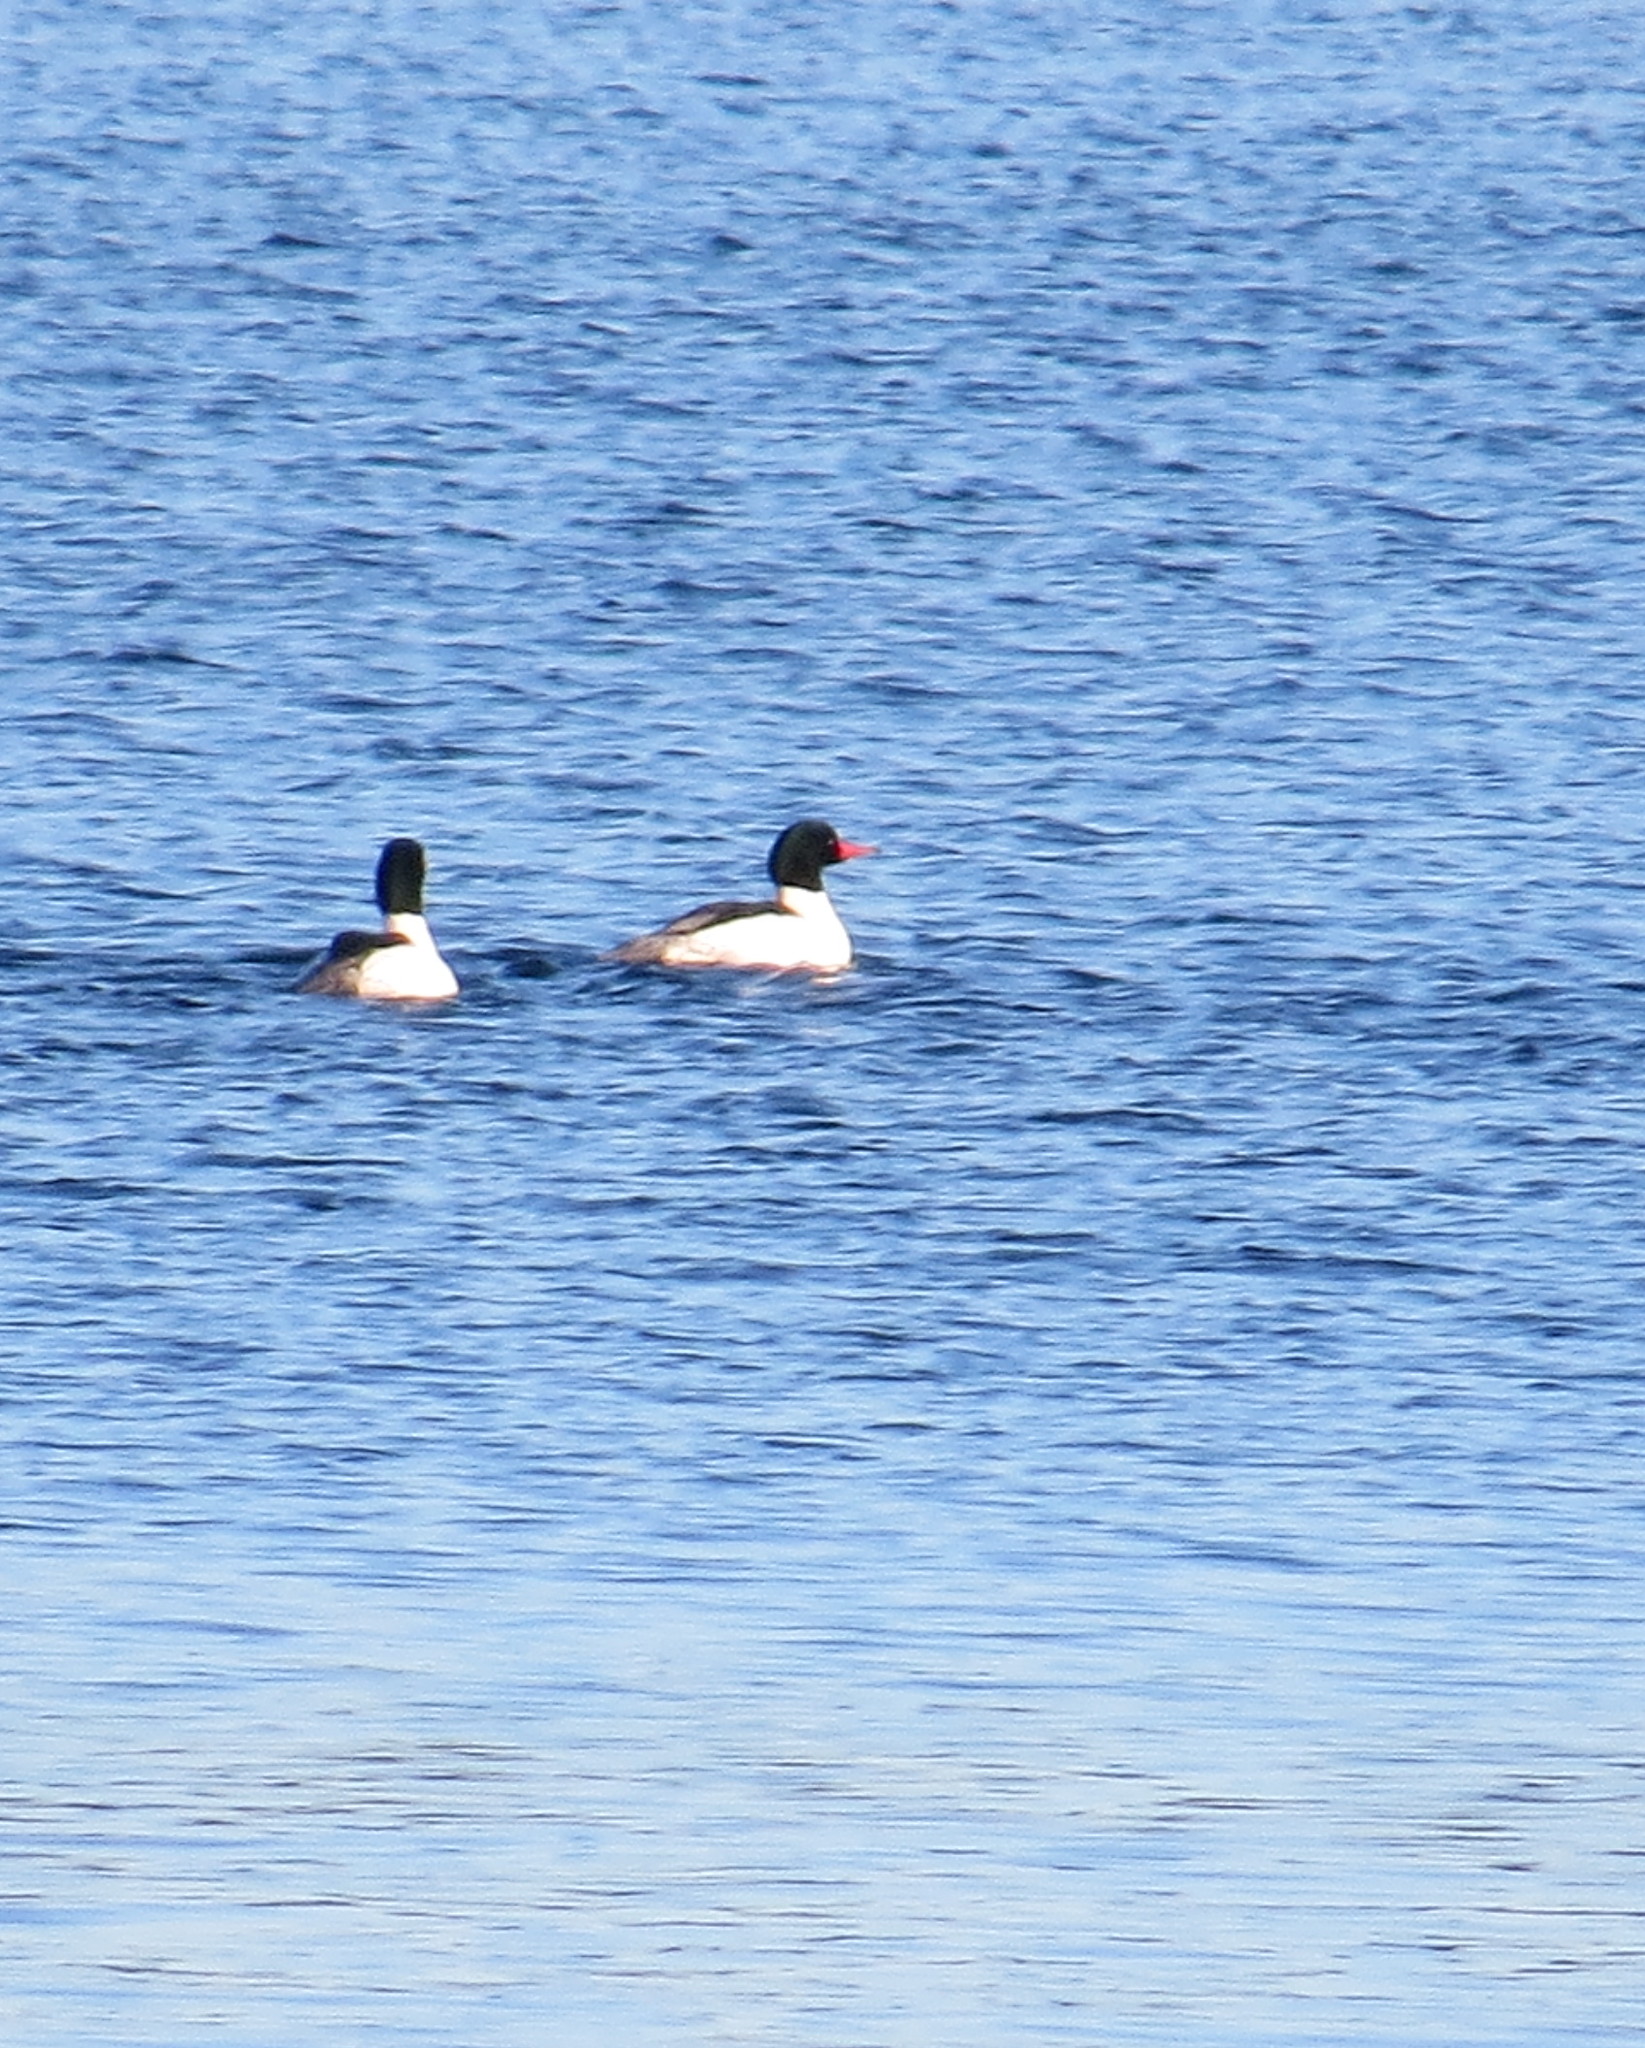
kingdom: Animalia
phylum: Chordata
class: Aves
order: Anseriformes
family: Anatidae
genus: Mergus
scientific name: Mergus merganser
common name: Common merganser
